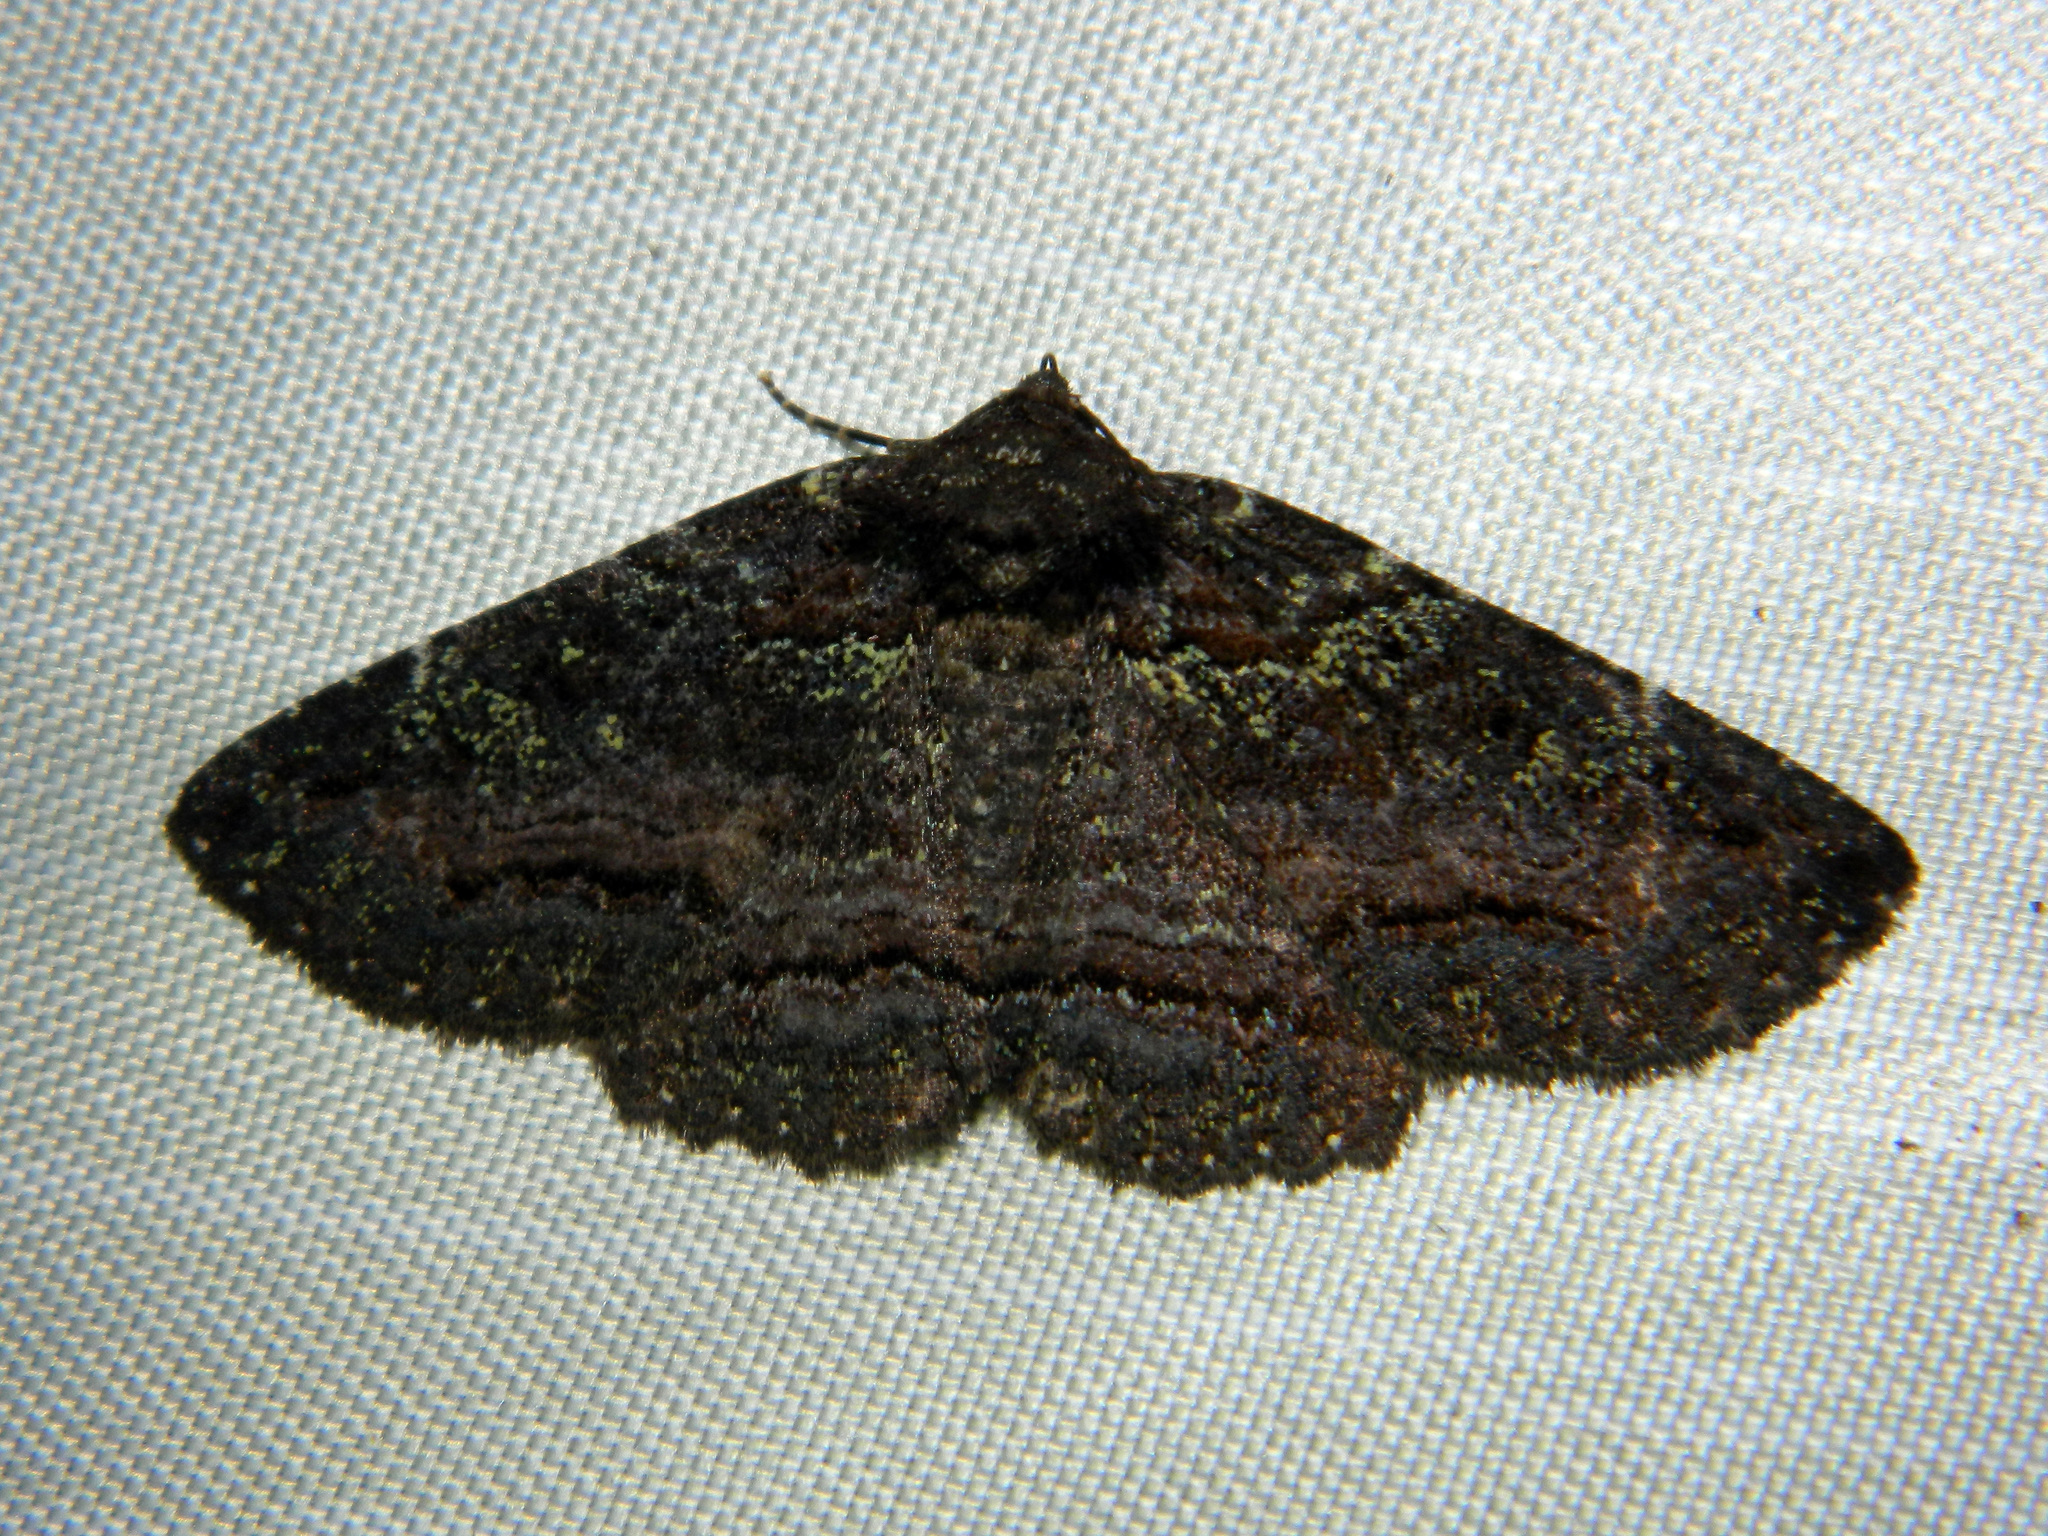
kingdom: Animalia
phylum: Arthropoda
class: Insecta
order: Lepidoptera
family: Erebidae
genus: Zale
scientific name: Zale aeruginosa
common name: Green-dusted zale moth
